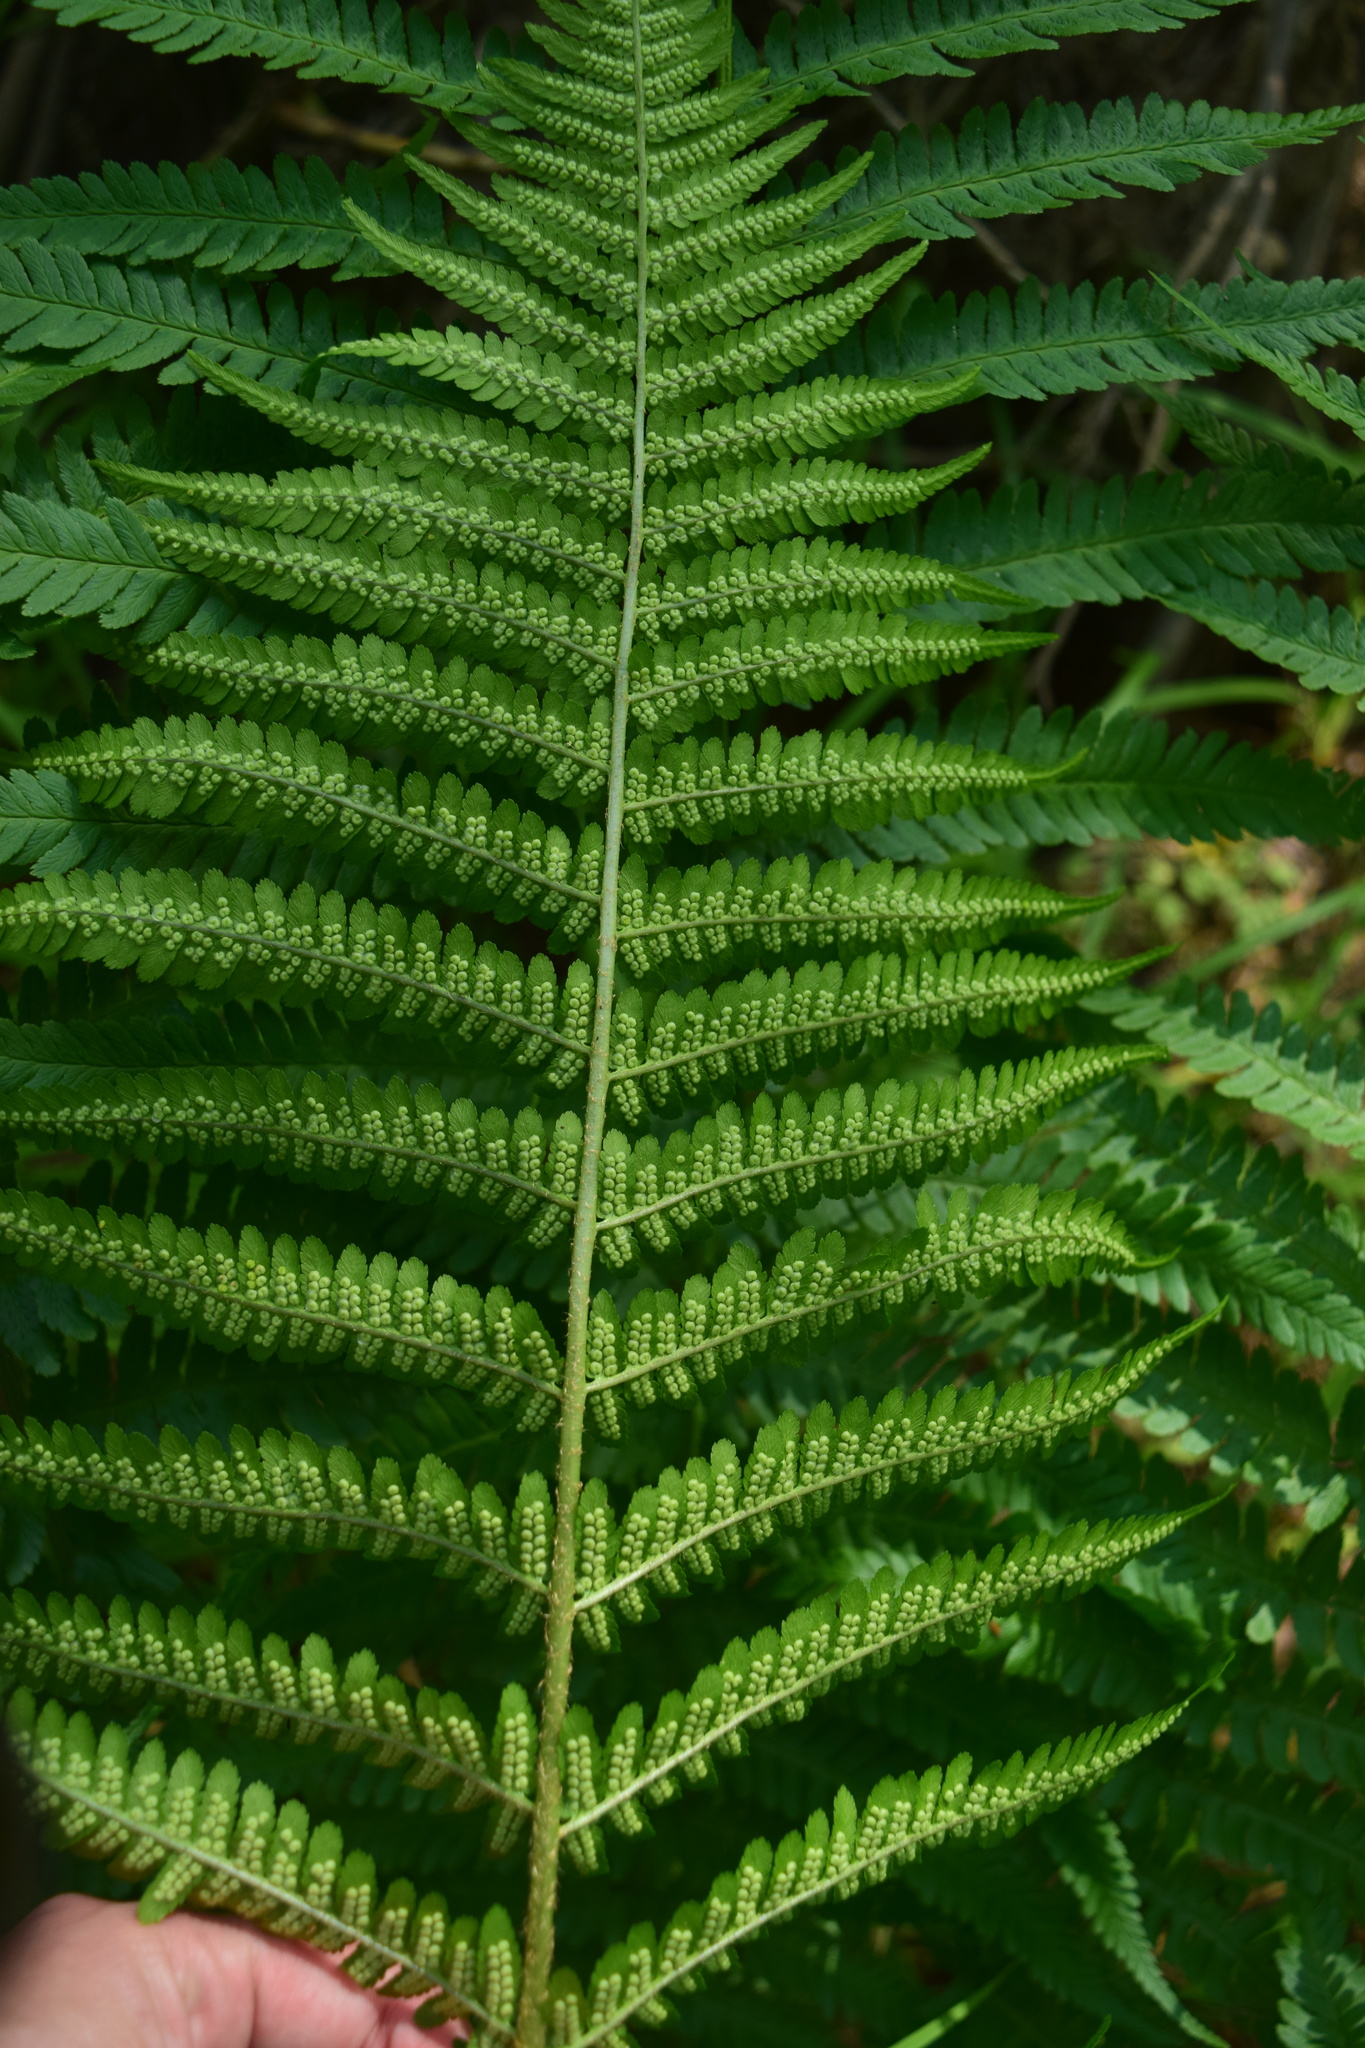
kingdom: Plantae
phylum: Tracheophyta
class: Polypodiopsida
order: Polypodiales
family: Dryopteridaceae
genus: Dryopteris
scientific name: Dryopteris filix-mas
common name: Male fern
